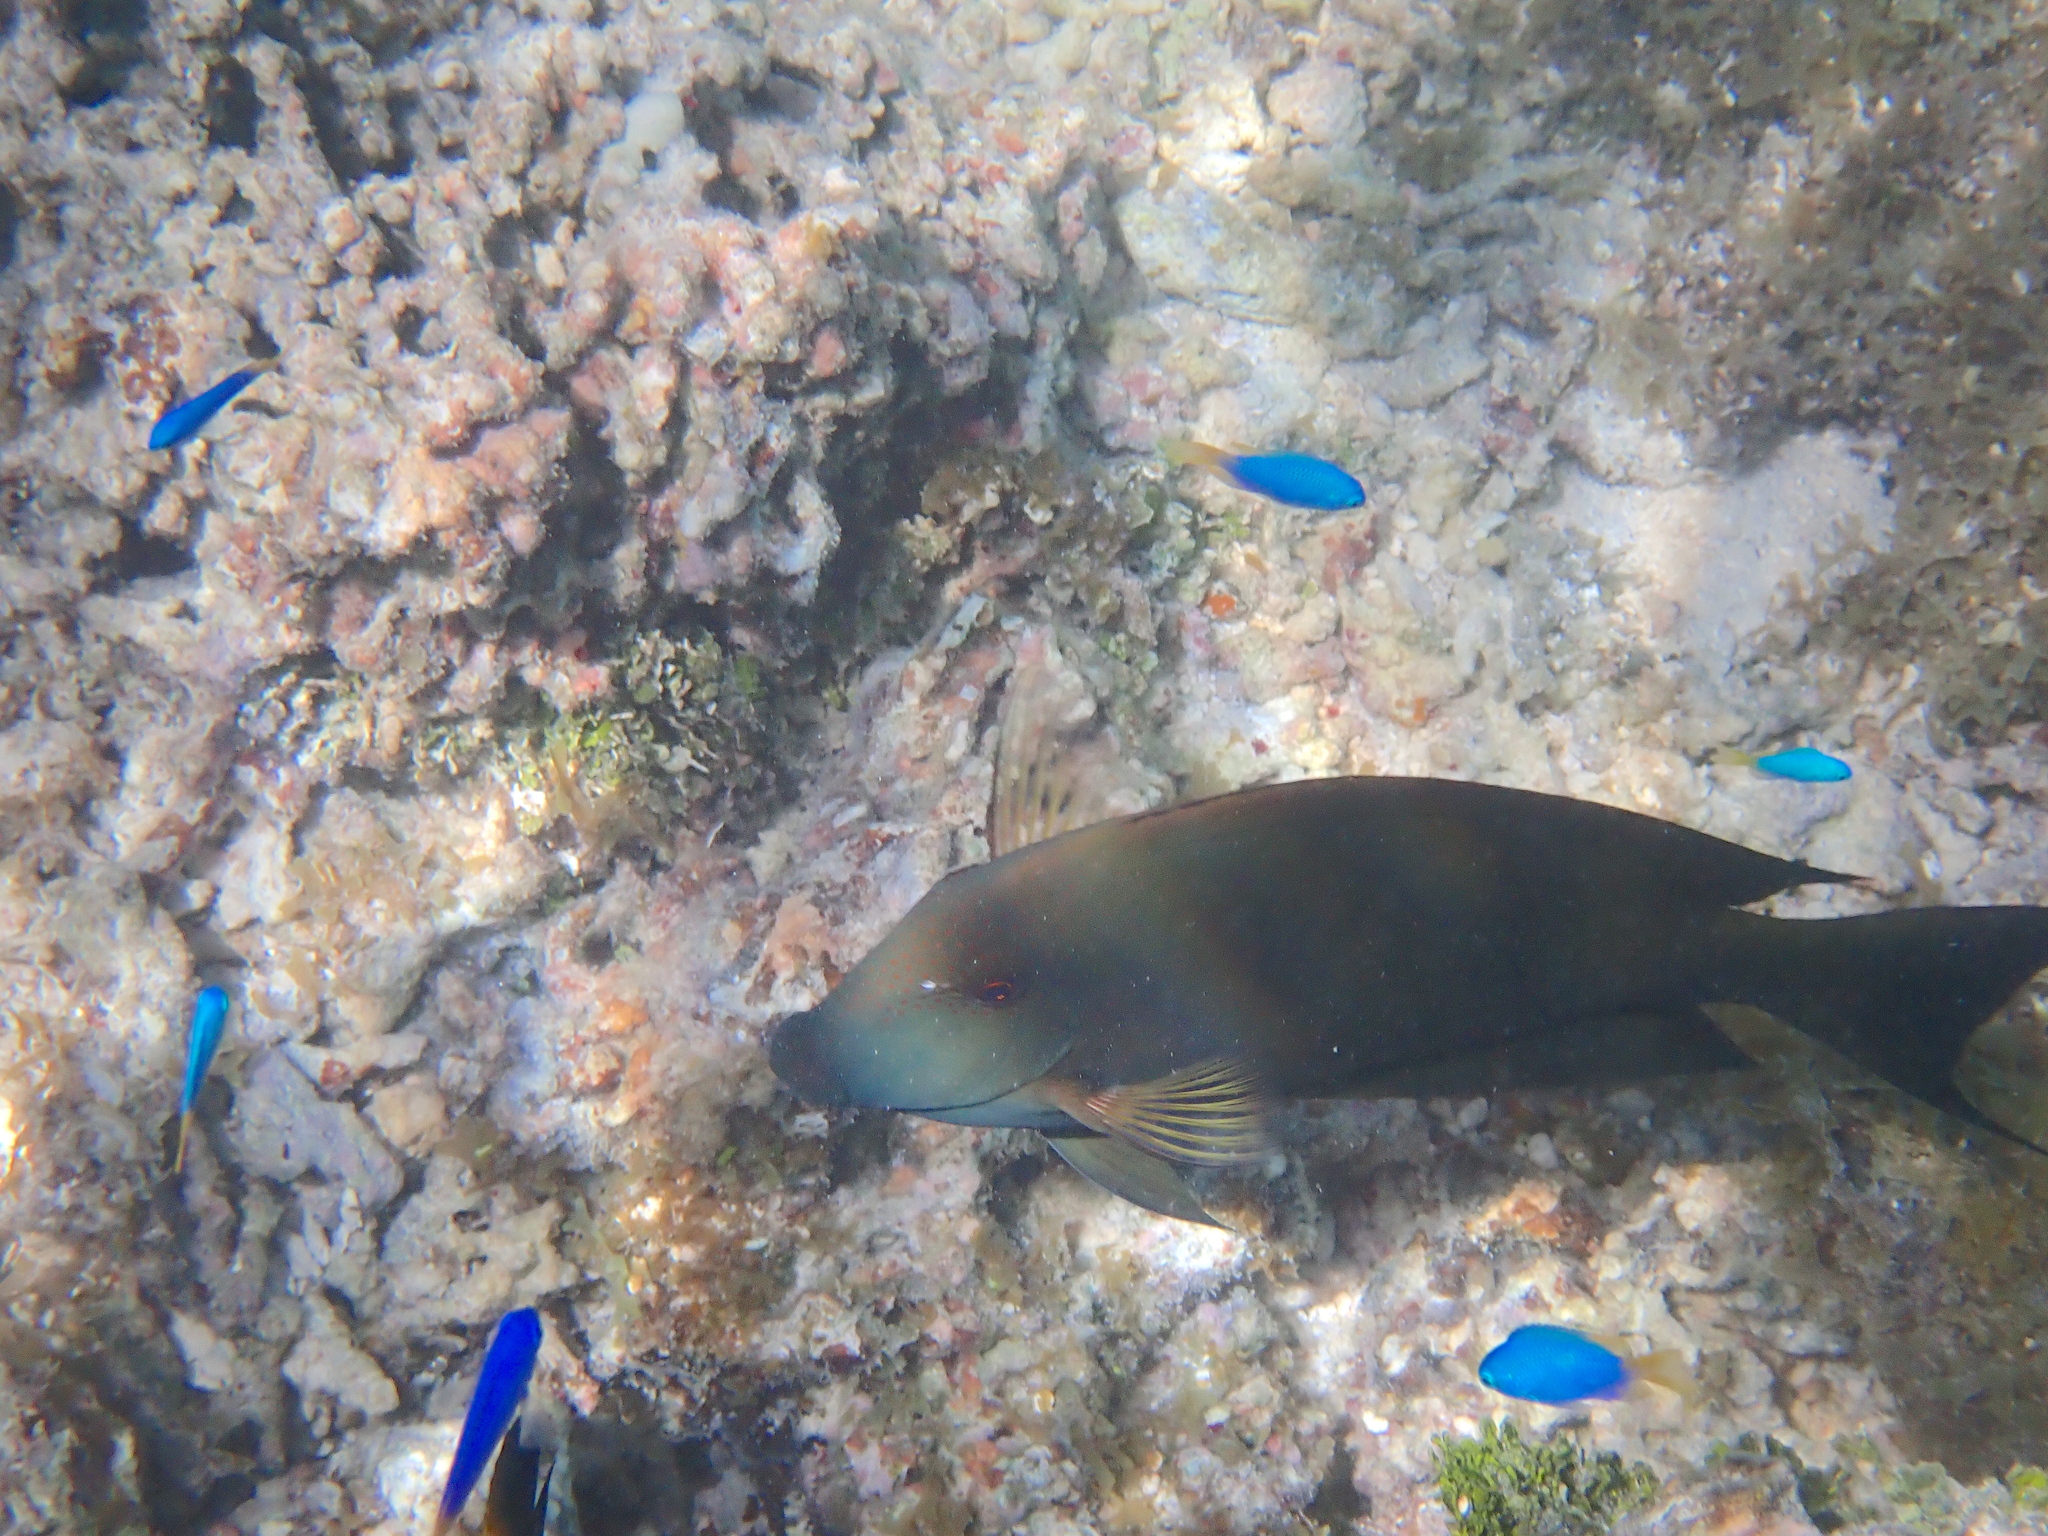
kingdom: Animalia
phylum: Chordata
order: Perciformes
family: Acanthuridae
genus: Ctenochaetus
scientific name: Ctenochaetus striatus
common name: Bristle-toothed surgeonfish
